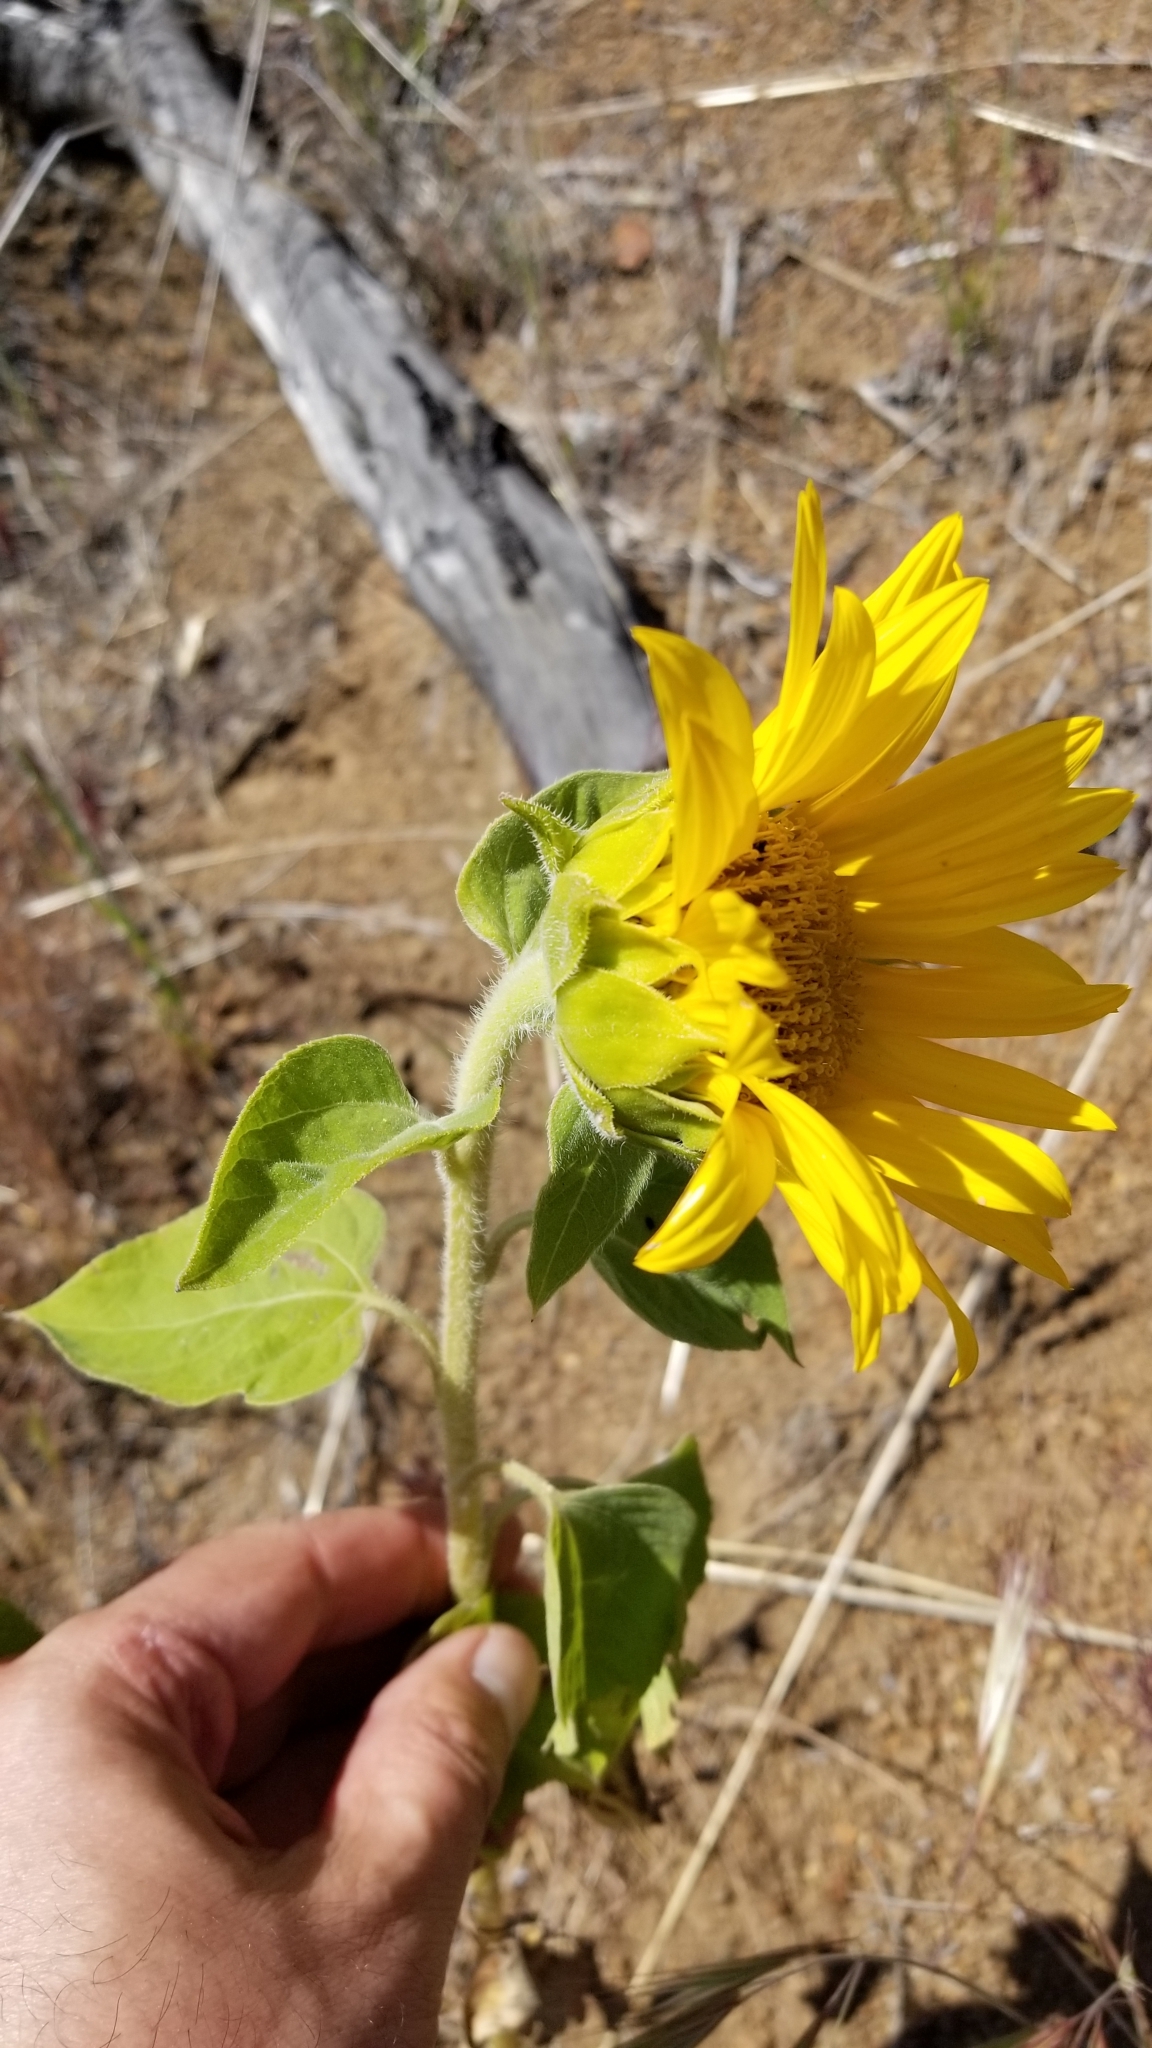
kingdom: Plantae
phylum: Tracheophyta
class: Magnoliopsida
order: Asterales
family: Asteraceae
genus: Helianthus
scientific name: Helianthus annuus
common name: Sunflower
